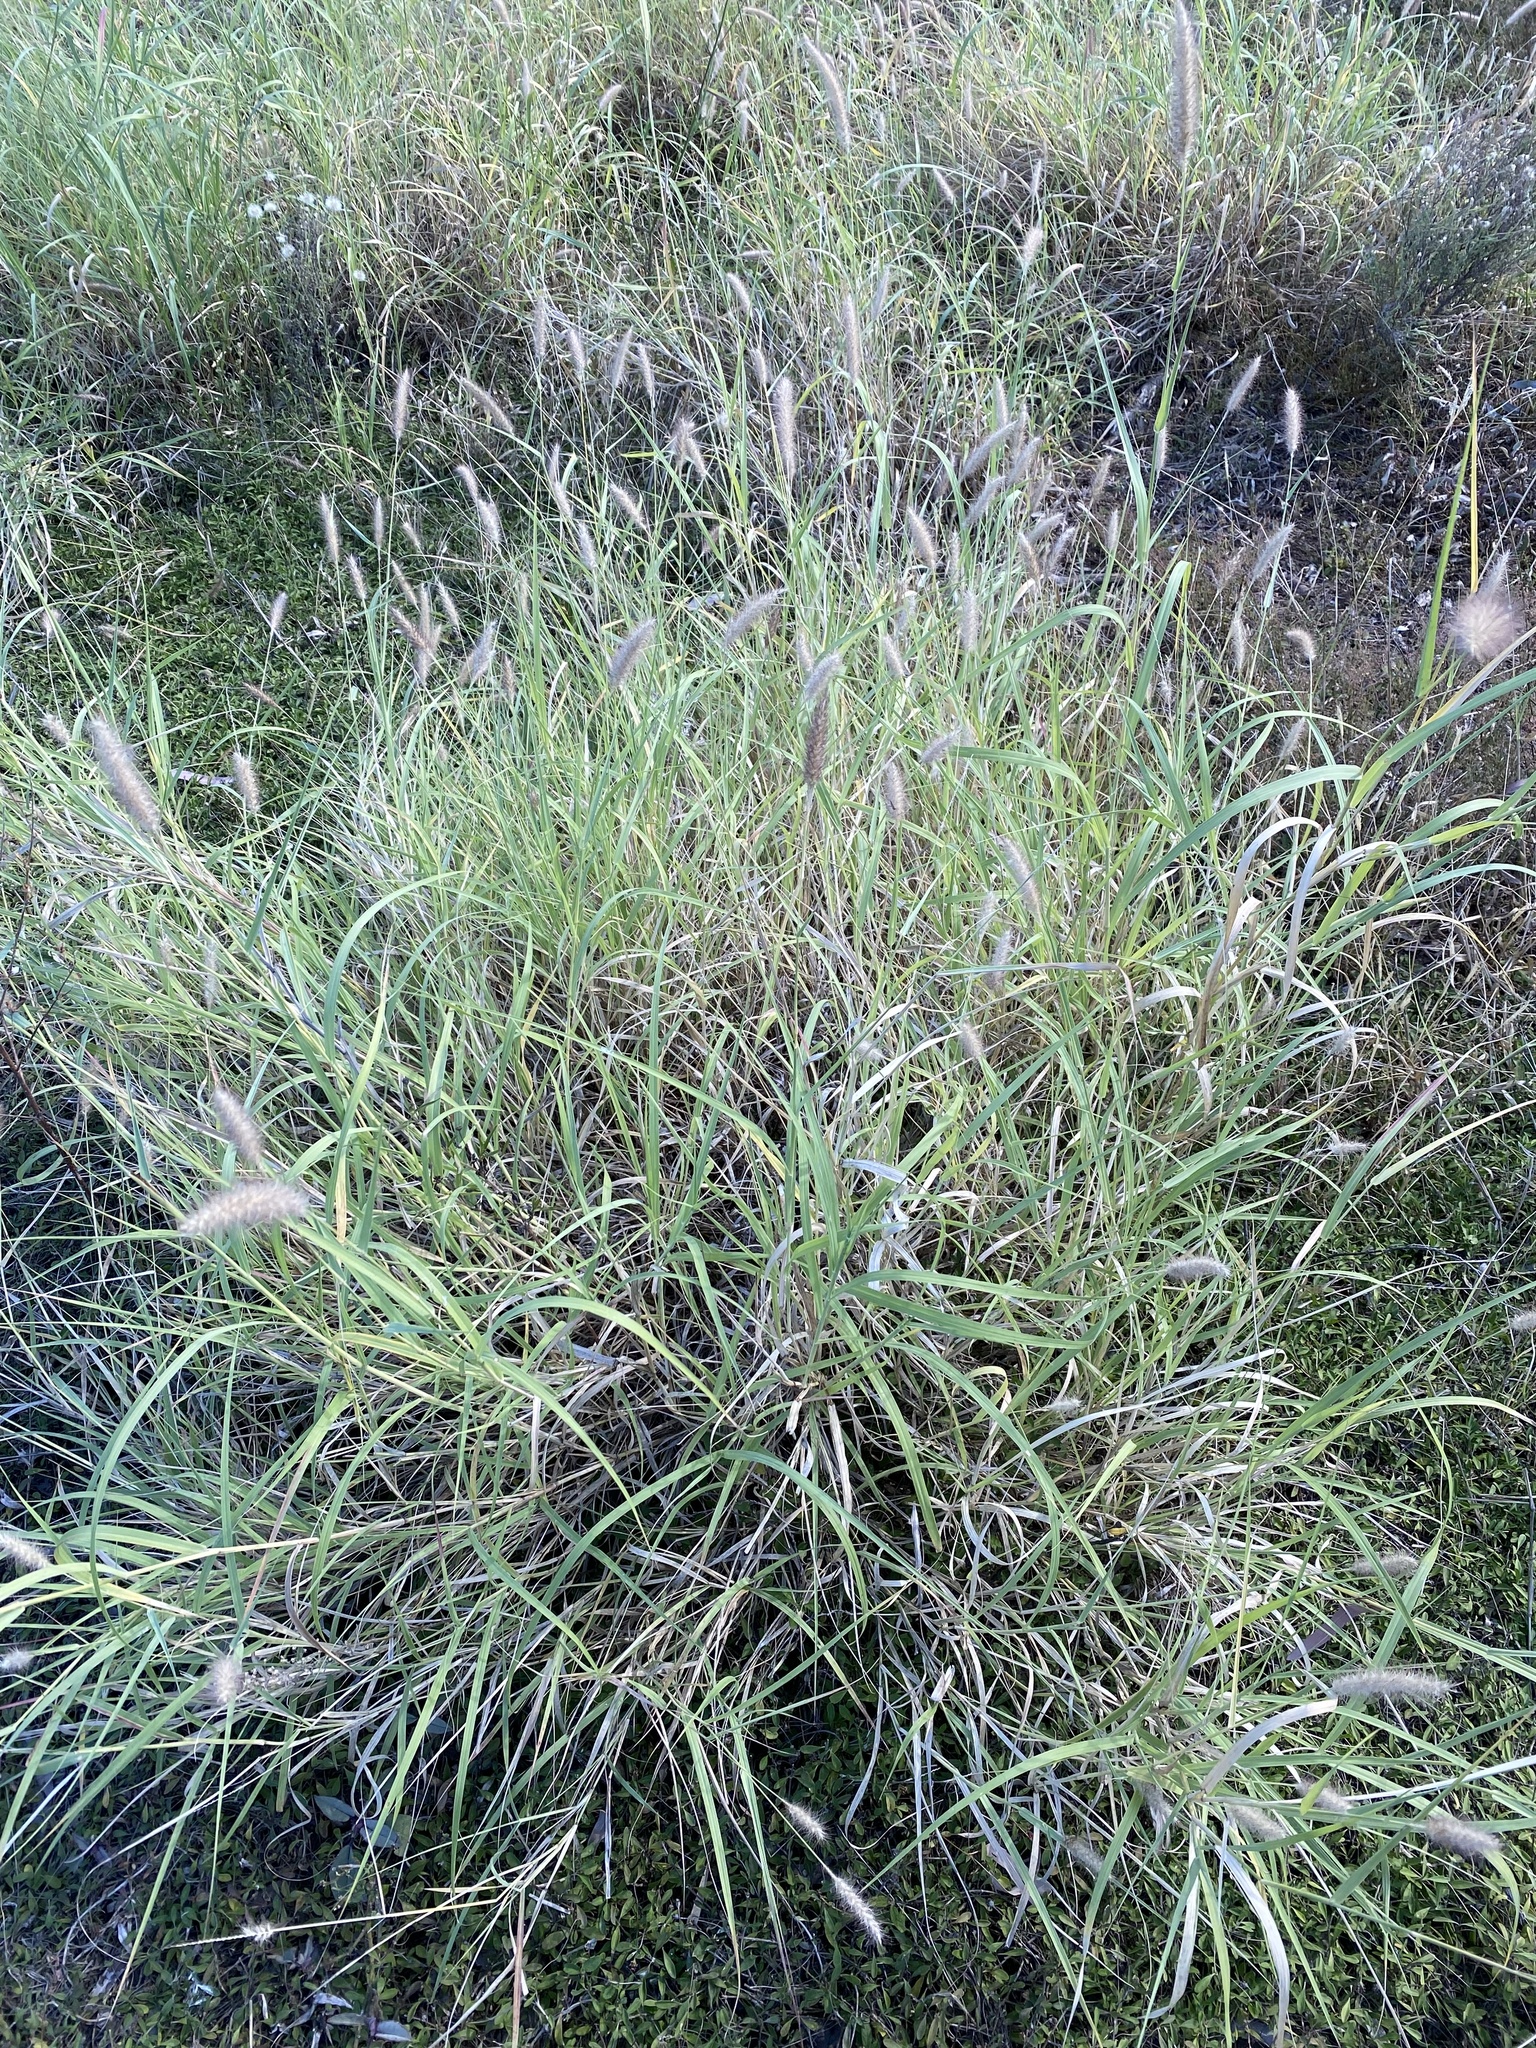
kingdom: Plantae
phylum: Tracheophyta
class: Liliopsida
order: Poales
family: Poaceae
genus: Cenchrus
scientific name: Cenchrus ciliaris
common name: Buffelgrass
